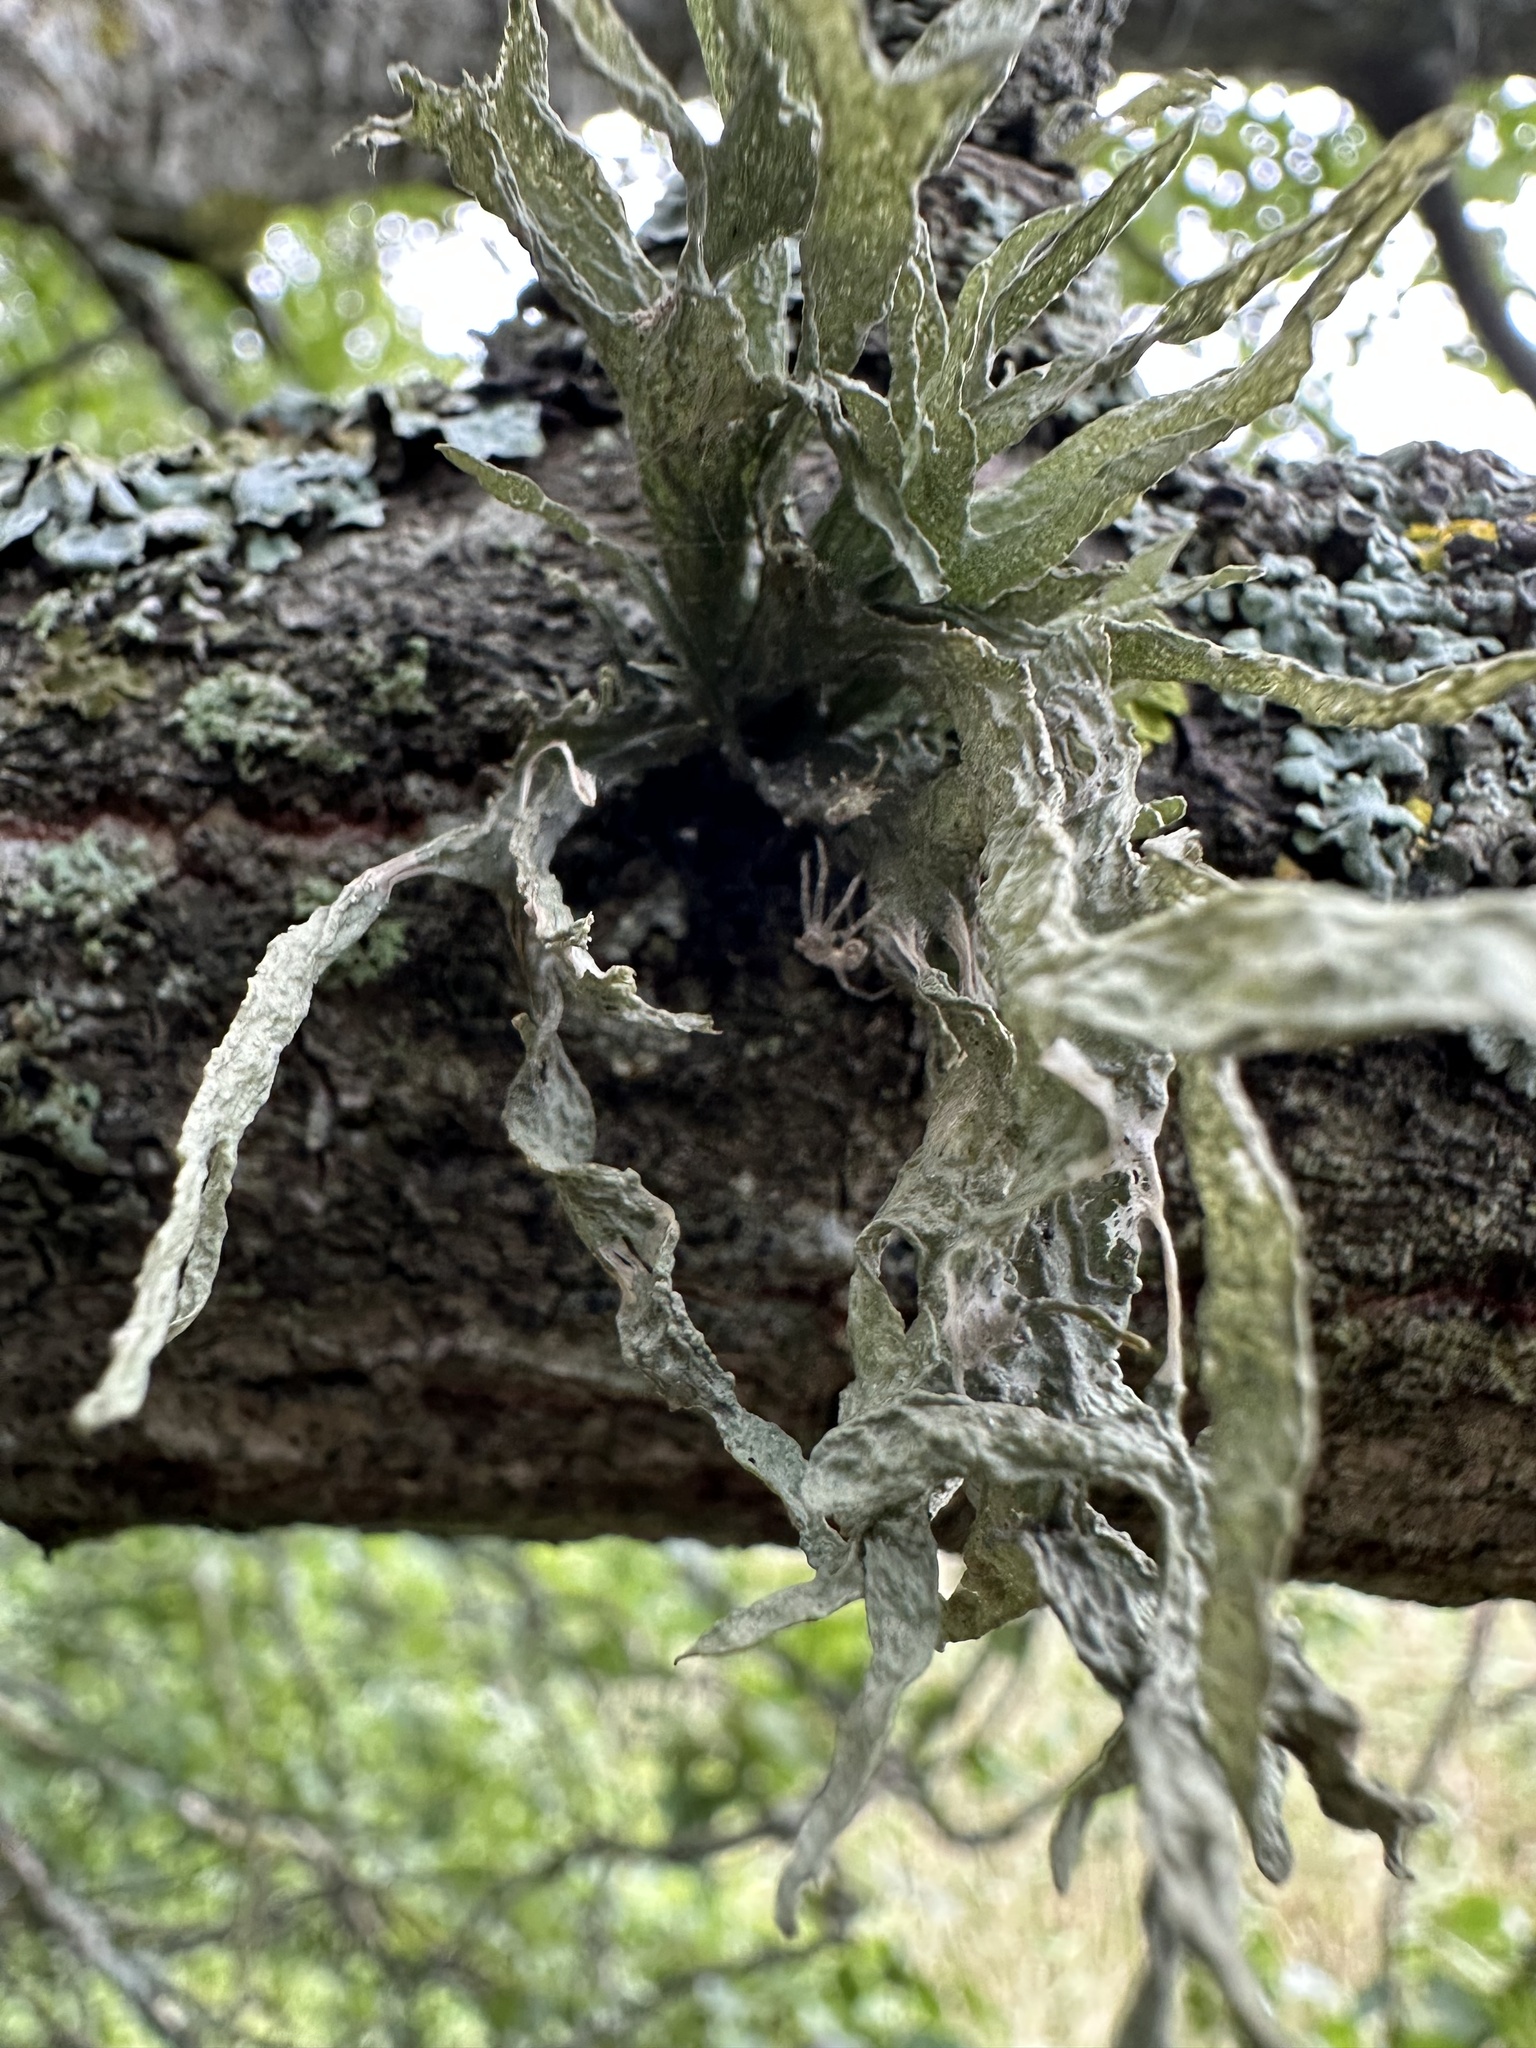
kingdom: Fungi
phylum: Ascomycota
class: Lecanoromycetes
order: Lecanorales
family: Ramalinaceae
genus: Ramalina
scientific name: Ramalina fraxinea
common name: Cartilage lichen
